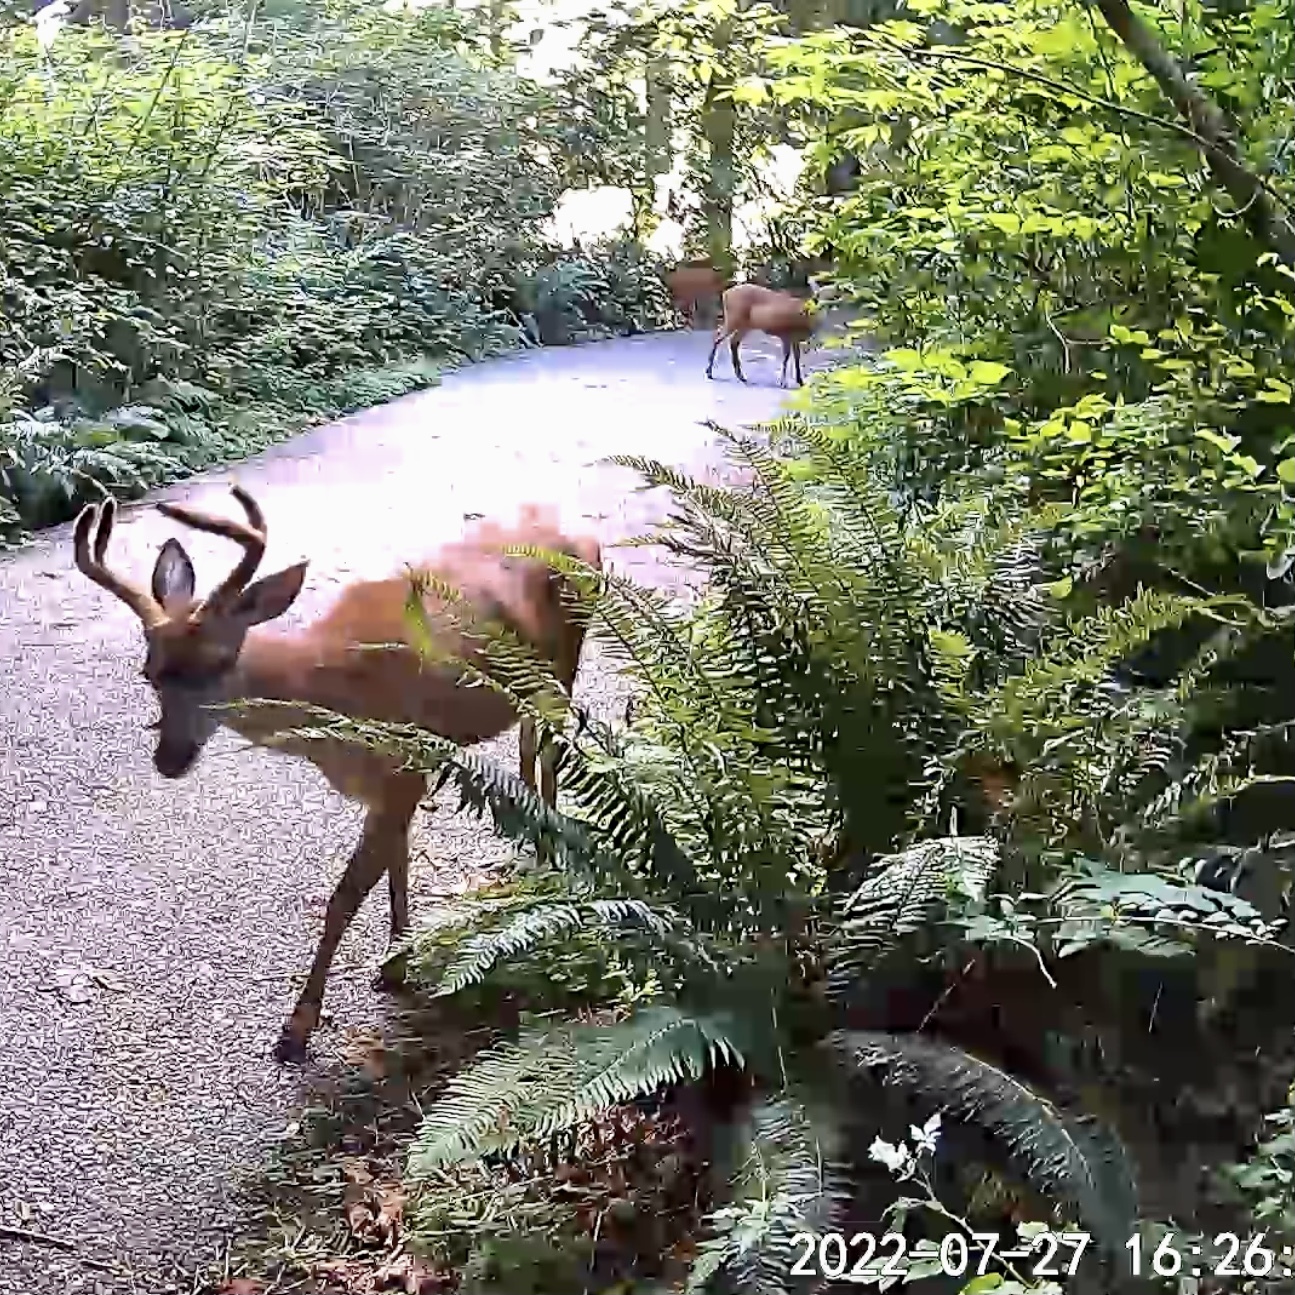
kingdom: Animalia
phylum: Chordata
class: Mammalia
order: Artiodactyla
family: Cervidae
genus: Odocoileus
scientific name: Odocoileus hemionus
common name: Mule deer
